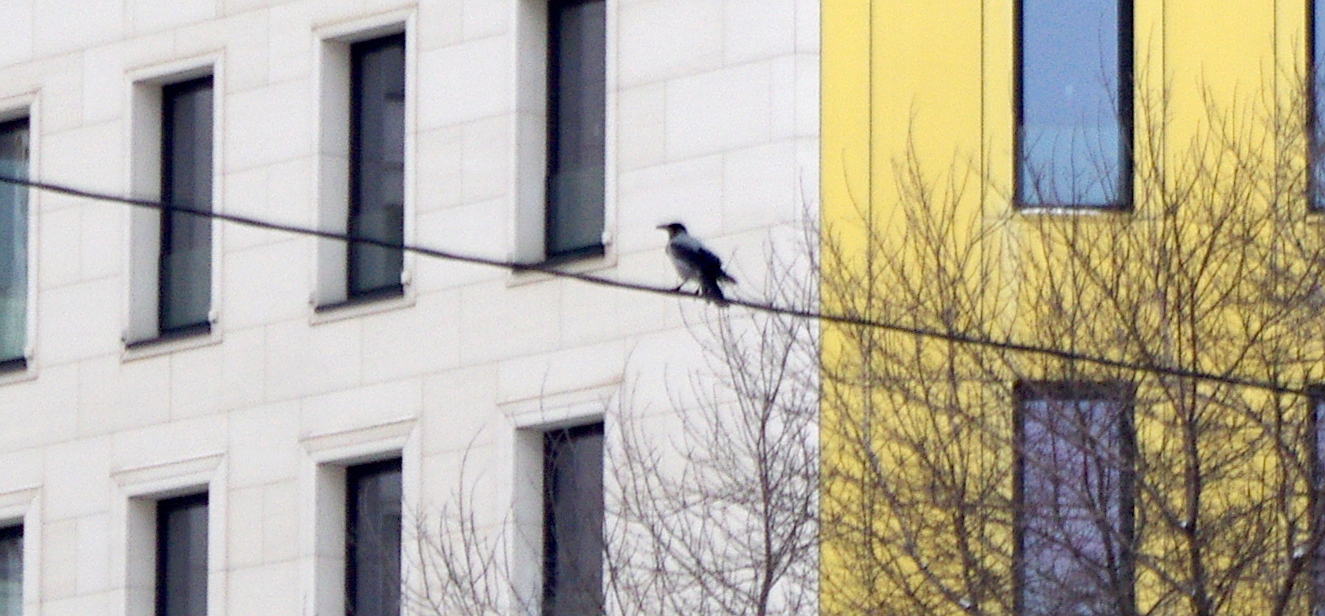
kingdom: Animalia
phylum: Chordata
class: Aves
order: Passeriformes
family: Corvidae
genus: Corvus
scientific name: Corvus cornix
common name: Hooded crow
